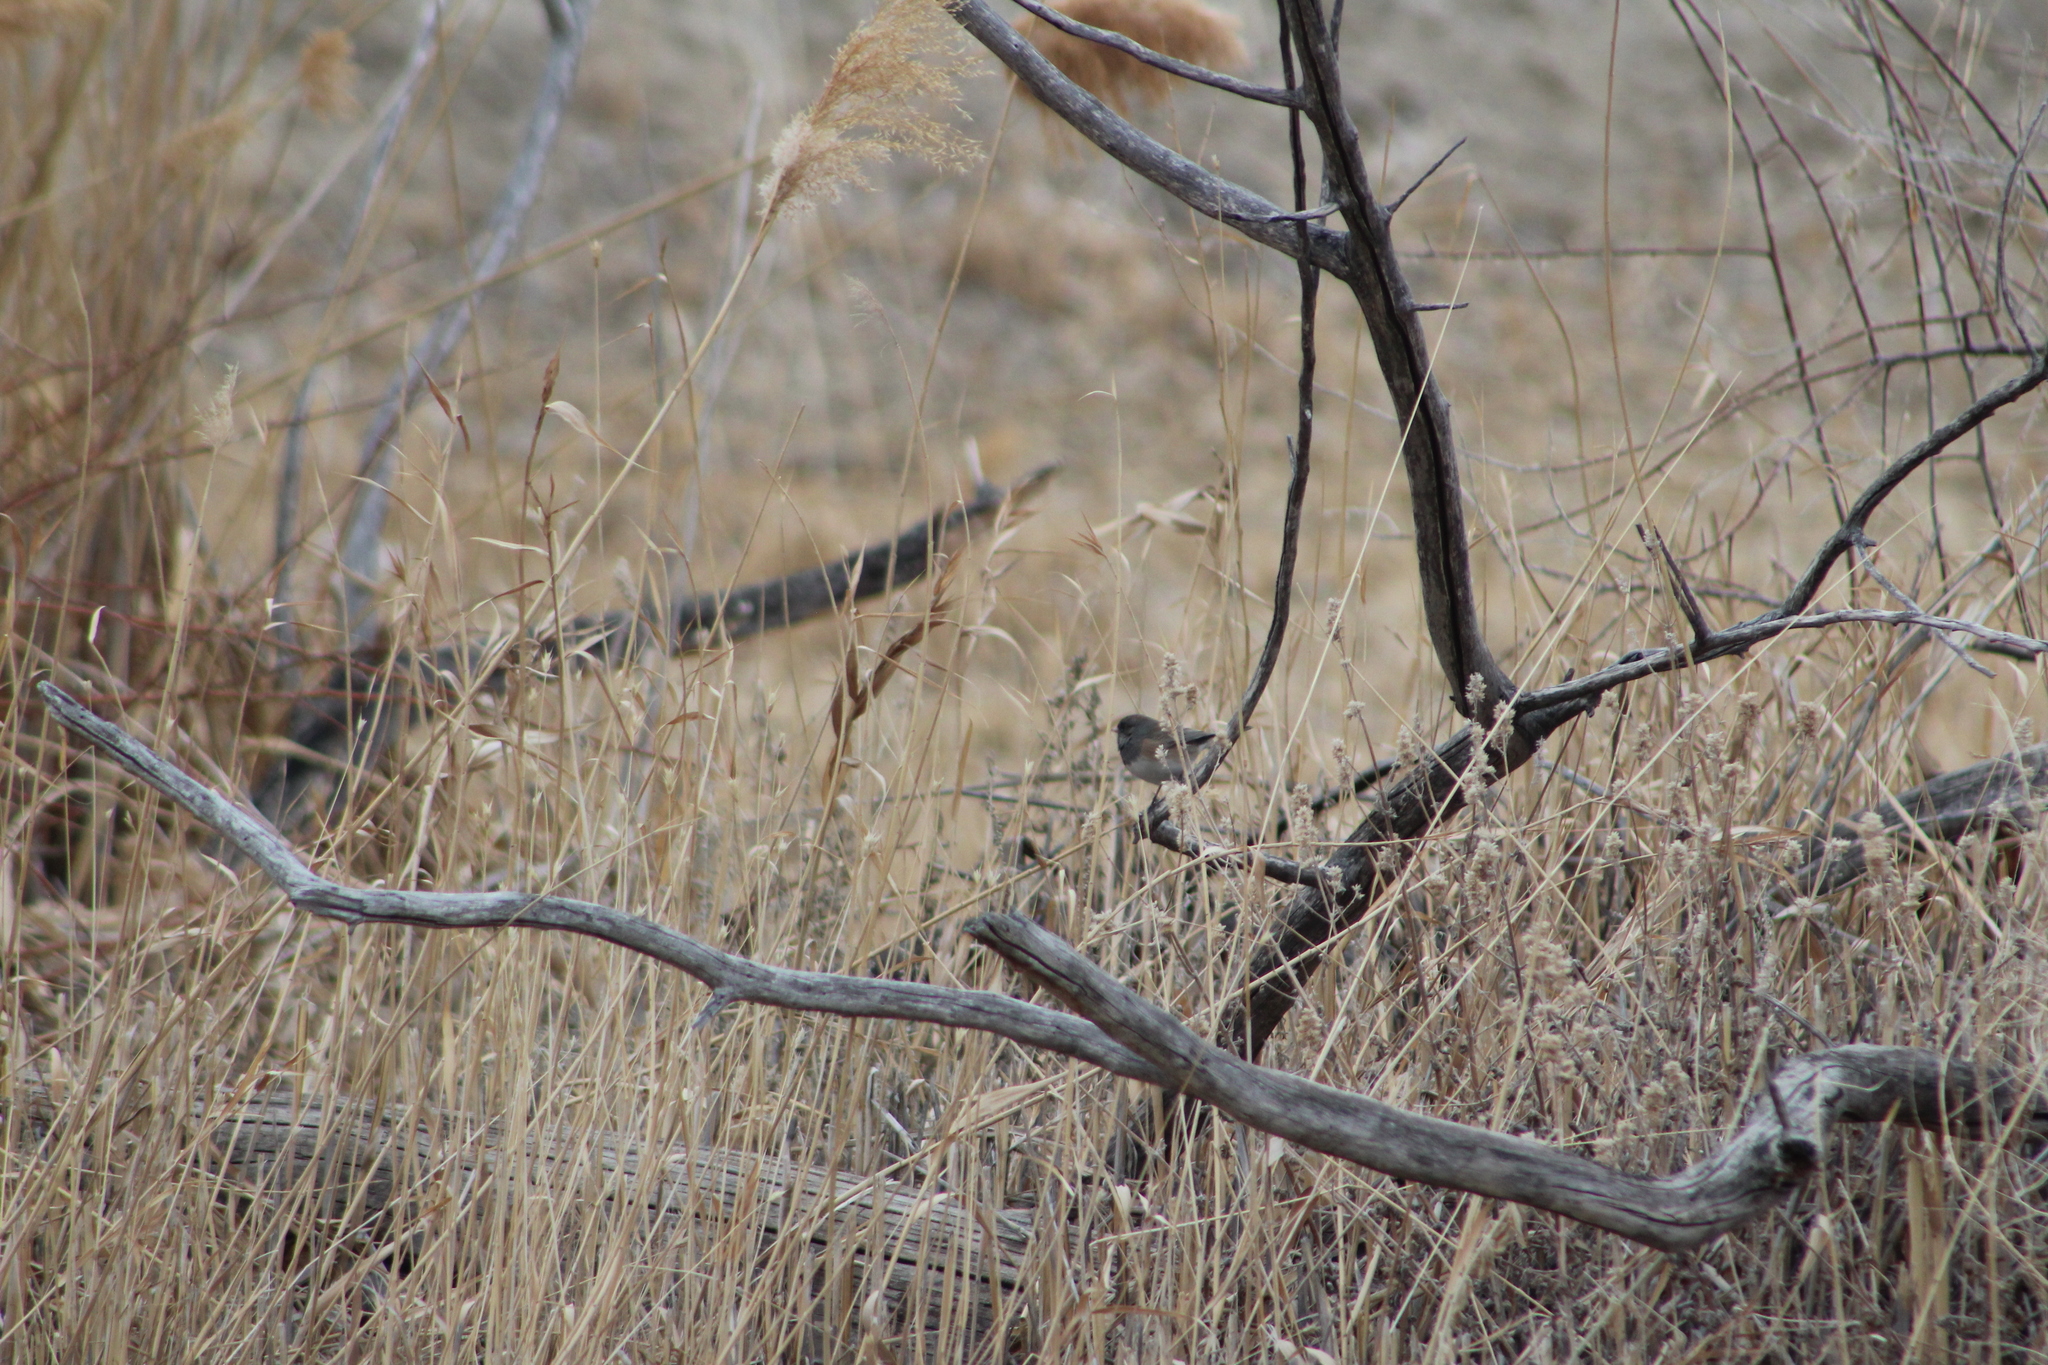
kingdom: Animalia
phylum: Chordata
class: Aves
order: Passeriformes
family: Passerellidae
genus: Junco
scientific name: Junco hyemalis
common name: Dark-eyed junco
